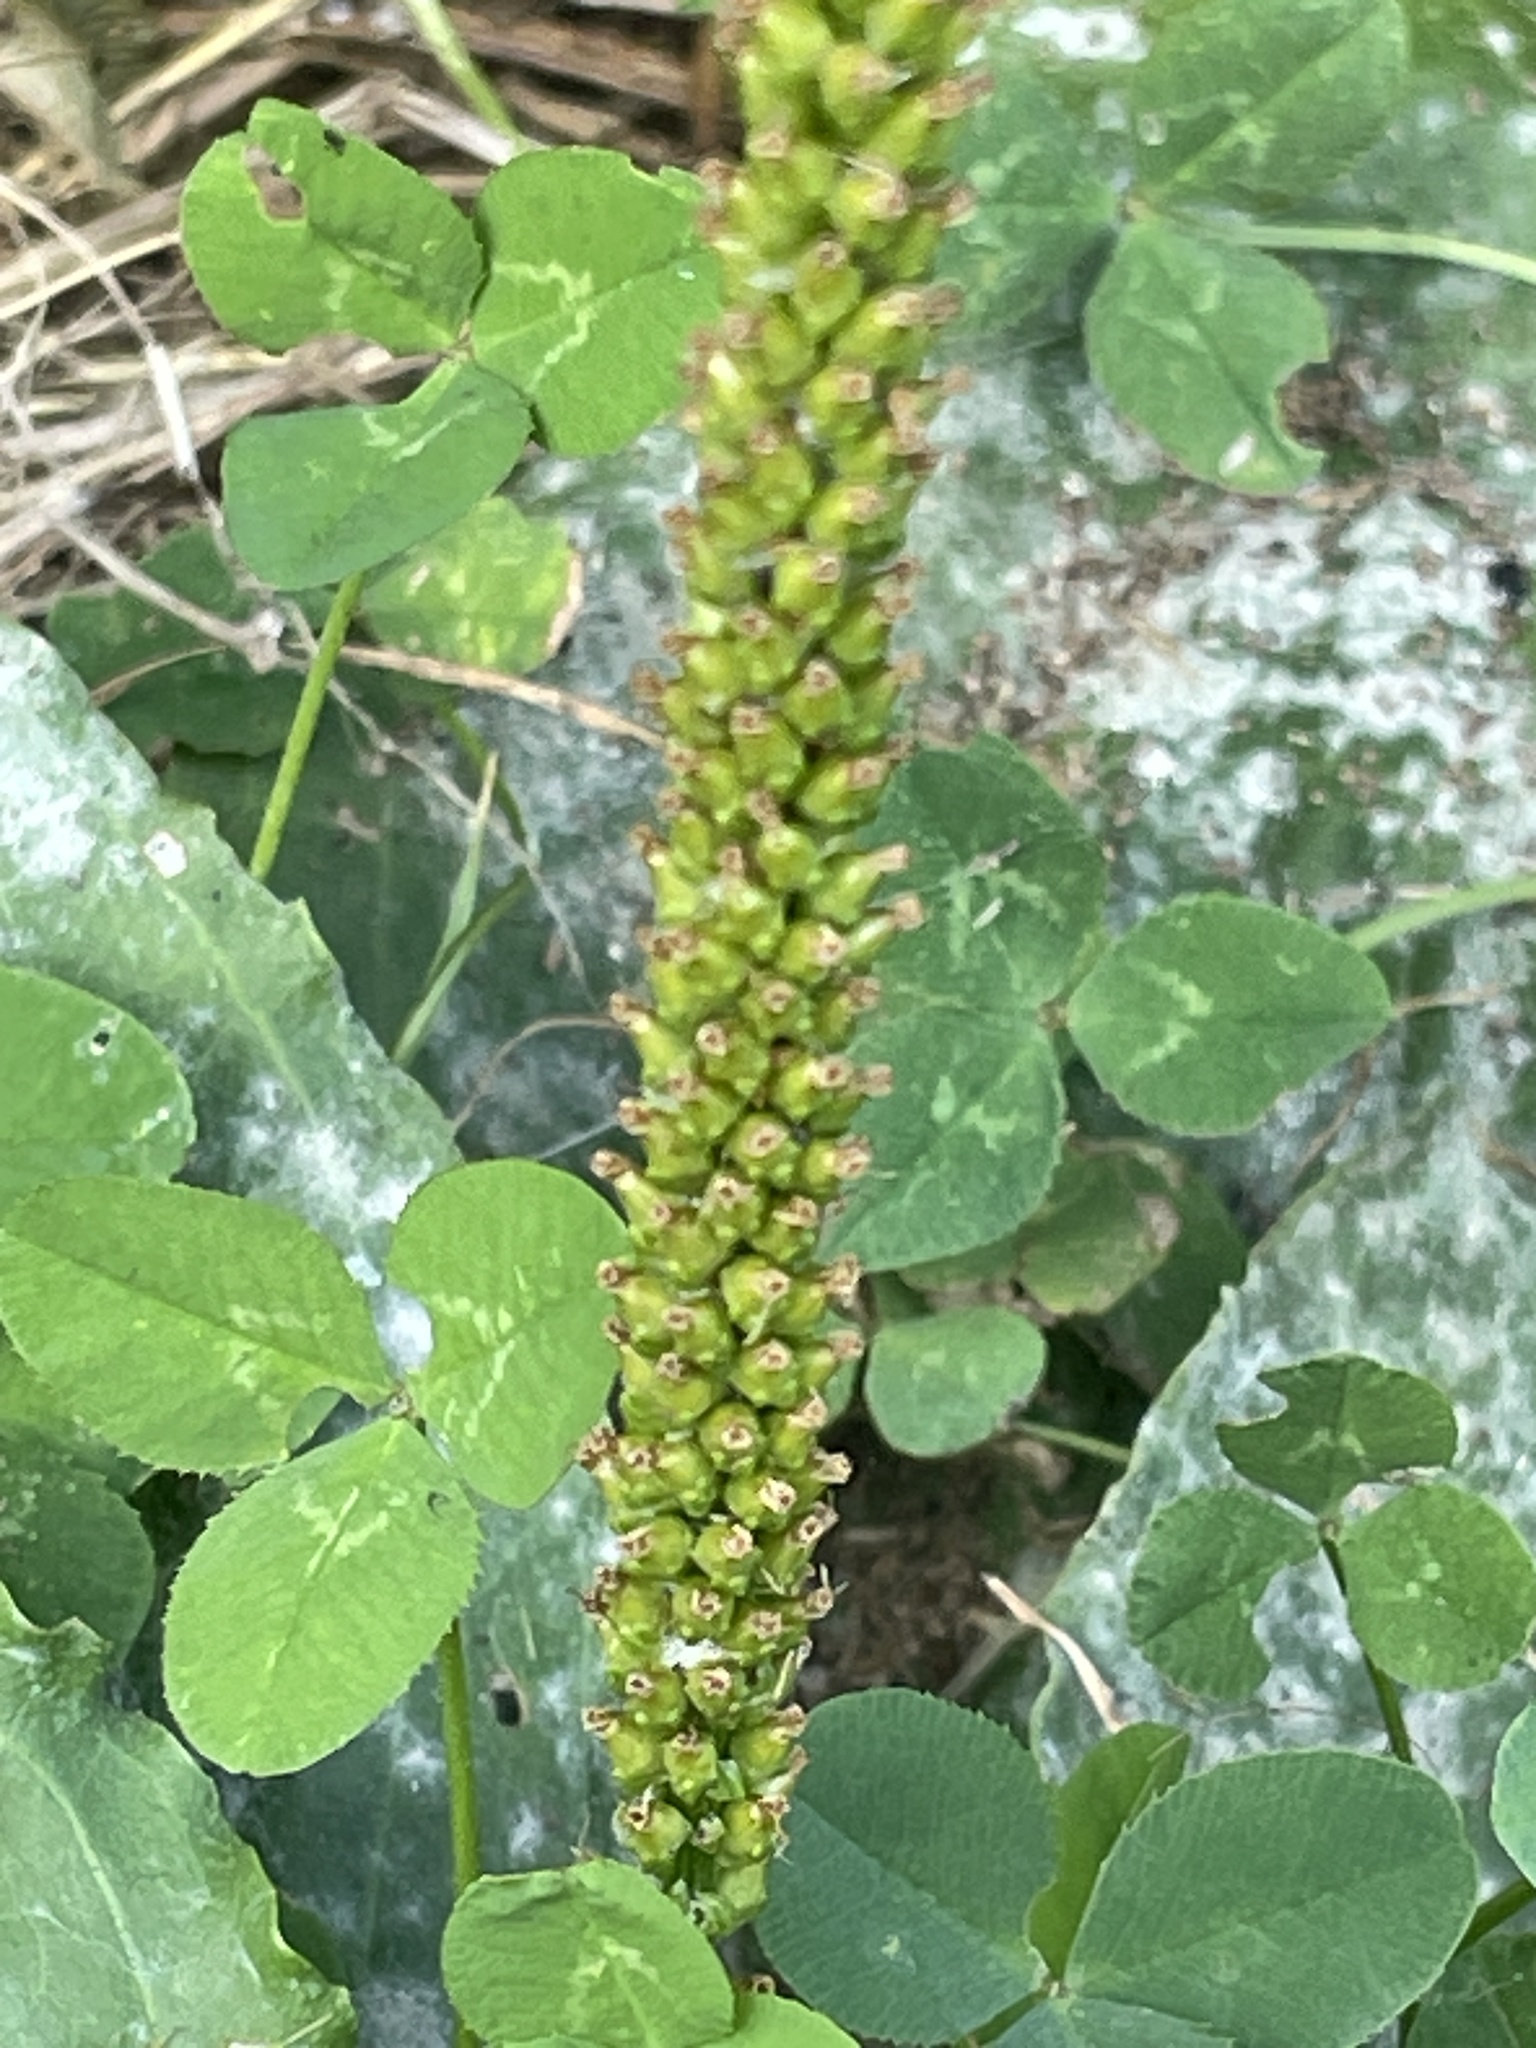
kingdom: Plantae
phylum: Tracheophyta
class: Magnoliopsida
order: Lamiales
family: Plantaginaceae
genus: Plantago
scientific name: Plantago major
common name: Common plantain
